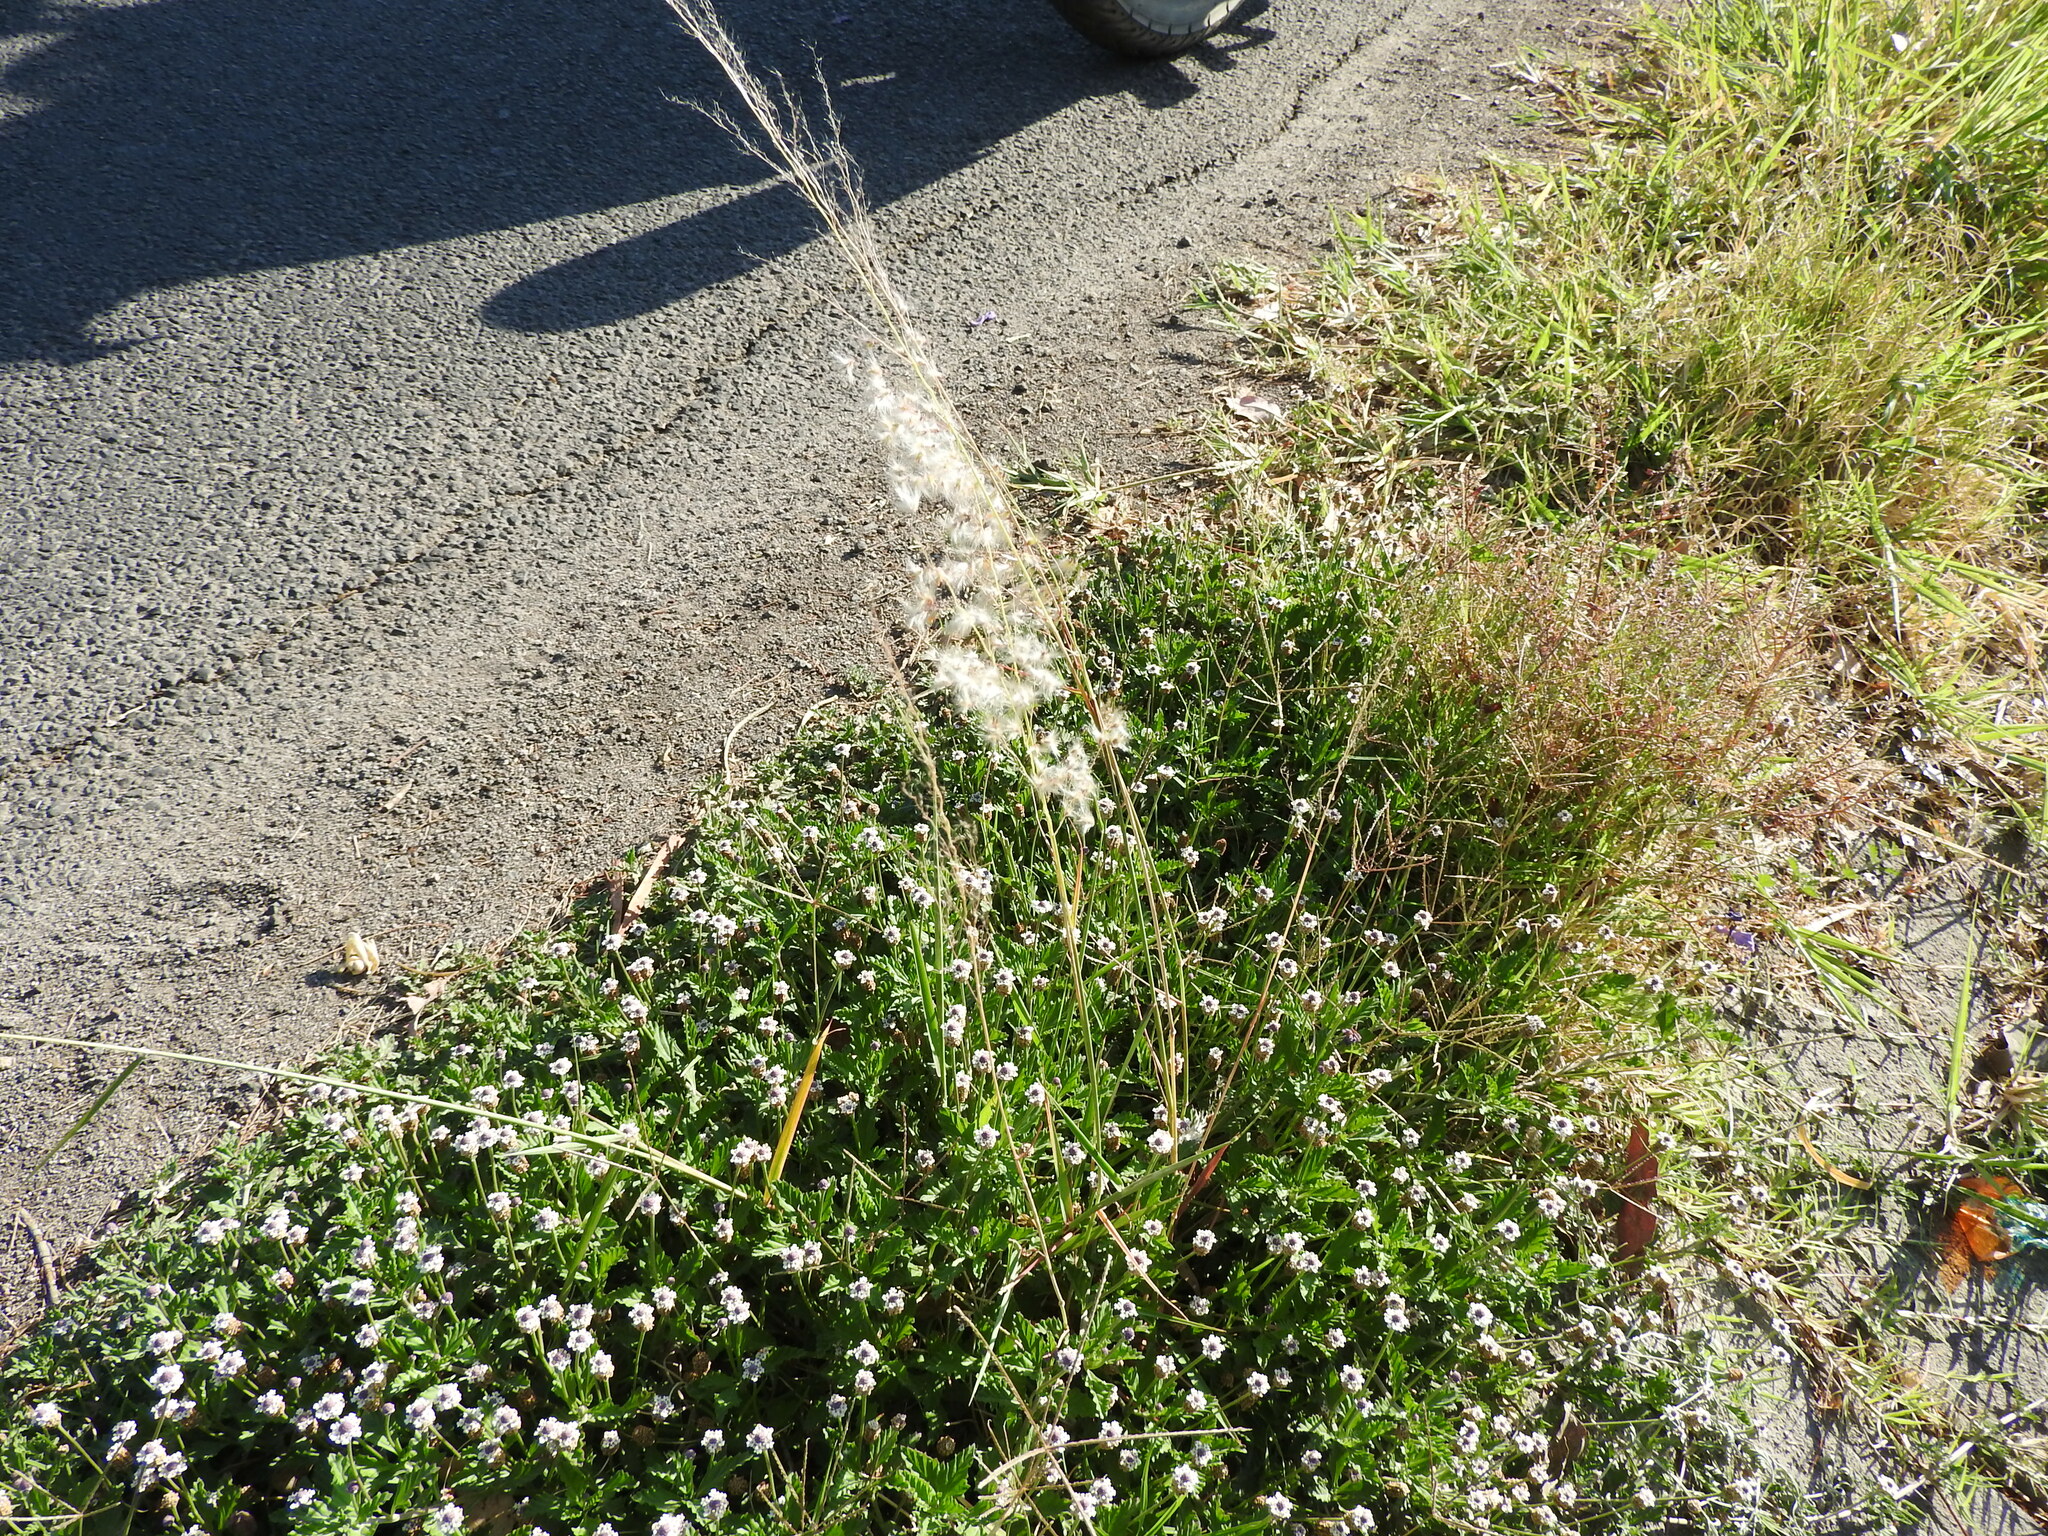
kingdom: Plantae
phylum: Tracheophyta
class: Liliopsida
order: Poales
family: Poaceae
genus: Melinis
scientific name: Melinis repens
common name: Rose natal grass
